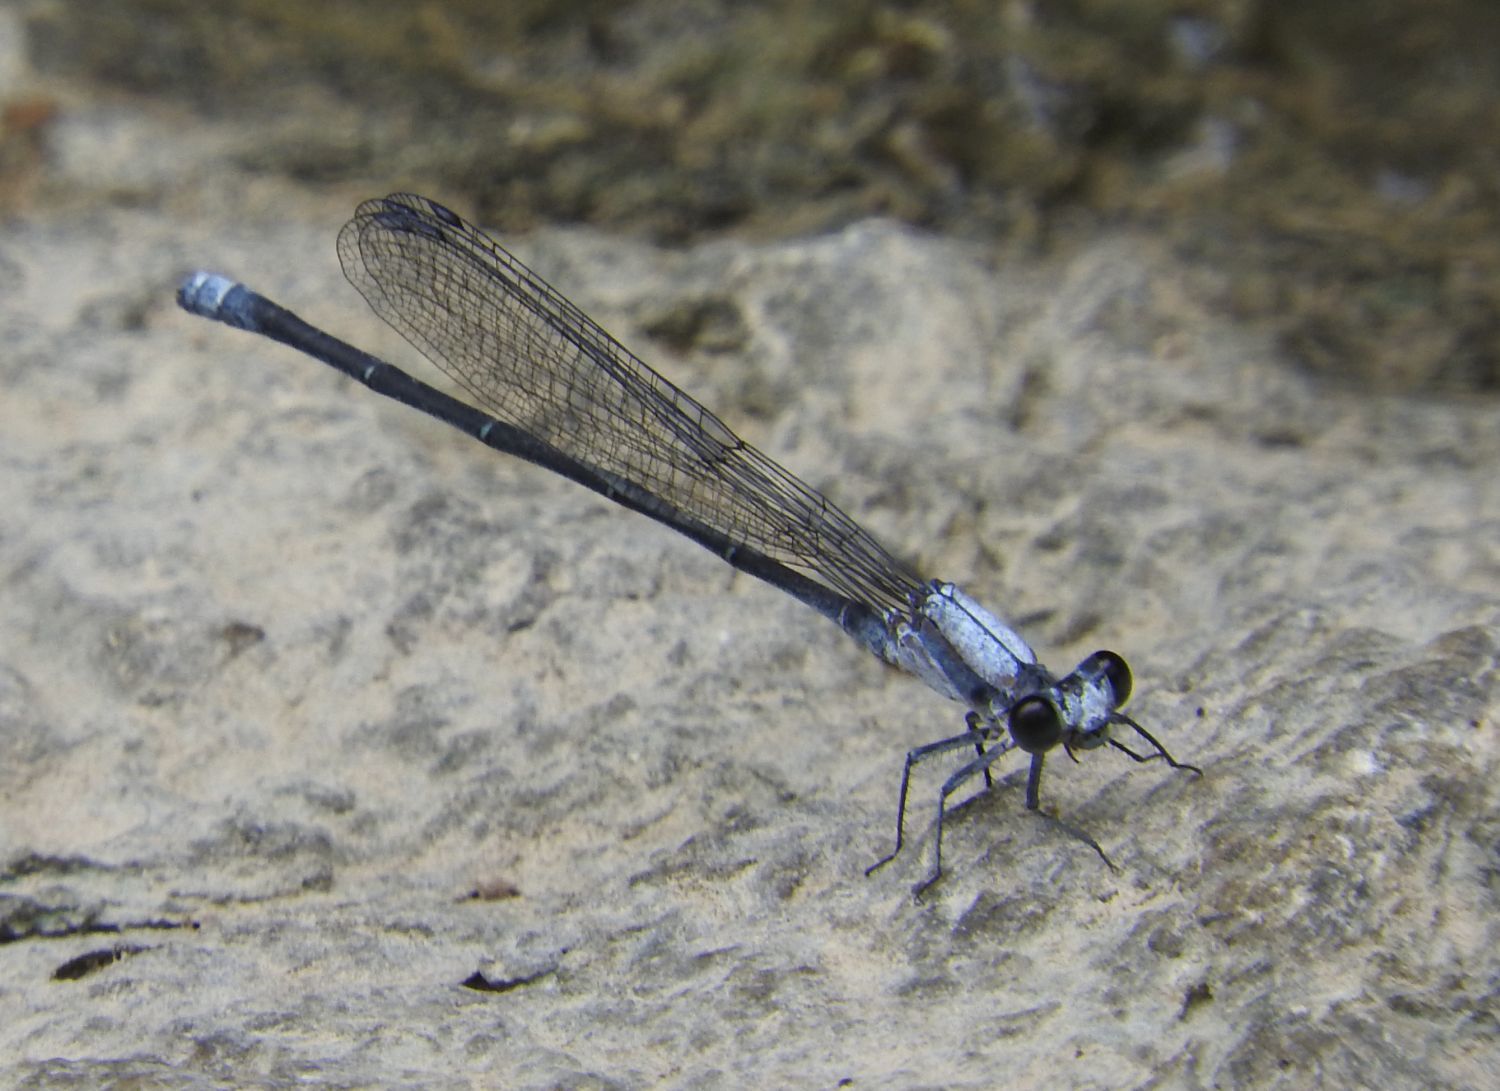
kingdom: Animalia
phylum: Arthropoda
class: Insecta
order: Odonata
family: Coenagrionidae
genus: Argia
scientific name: Argia moesta
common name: Powdered dancer
